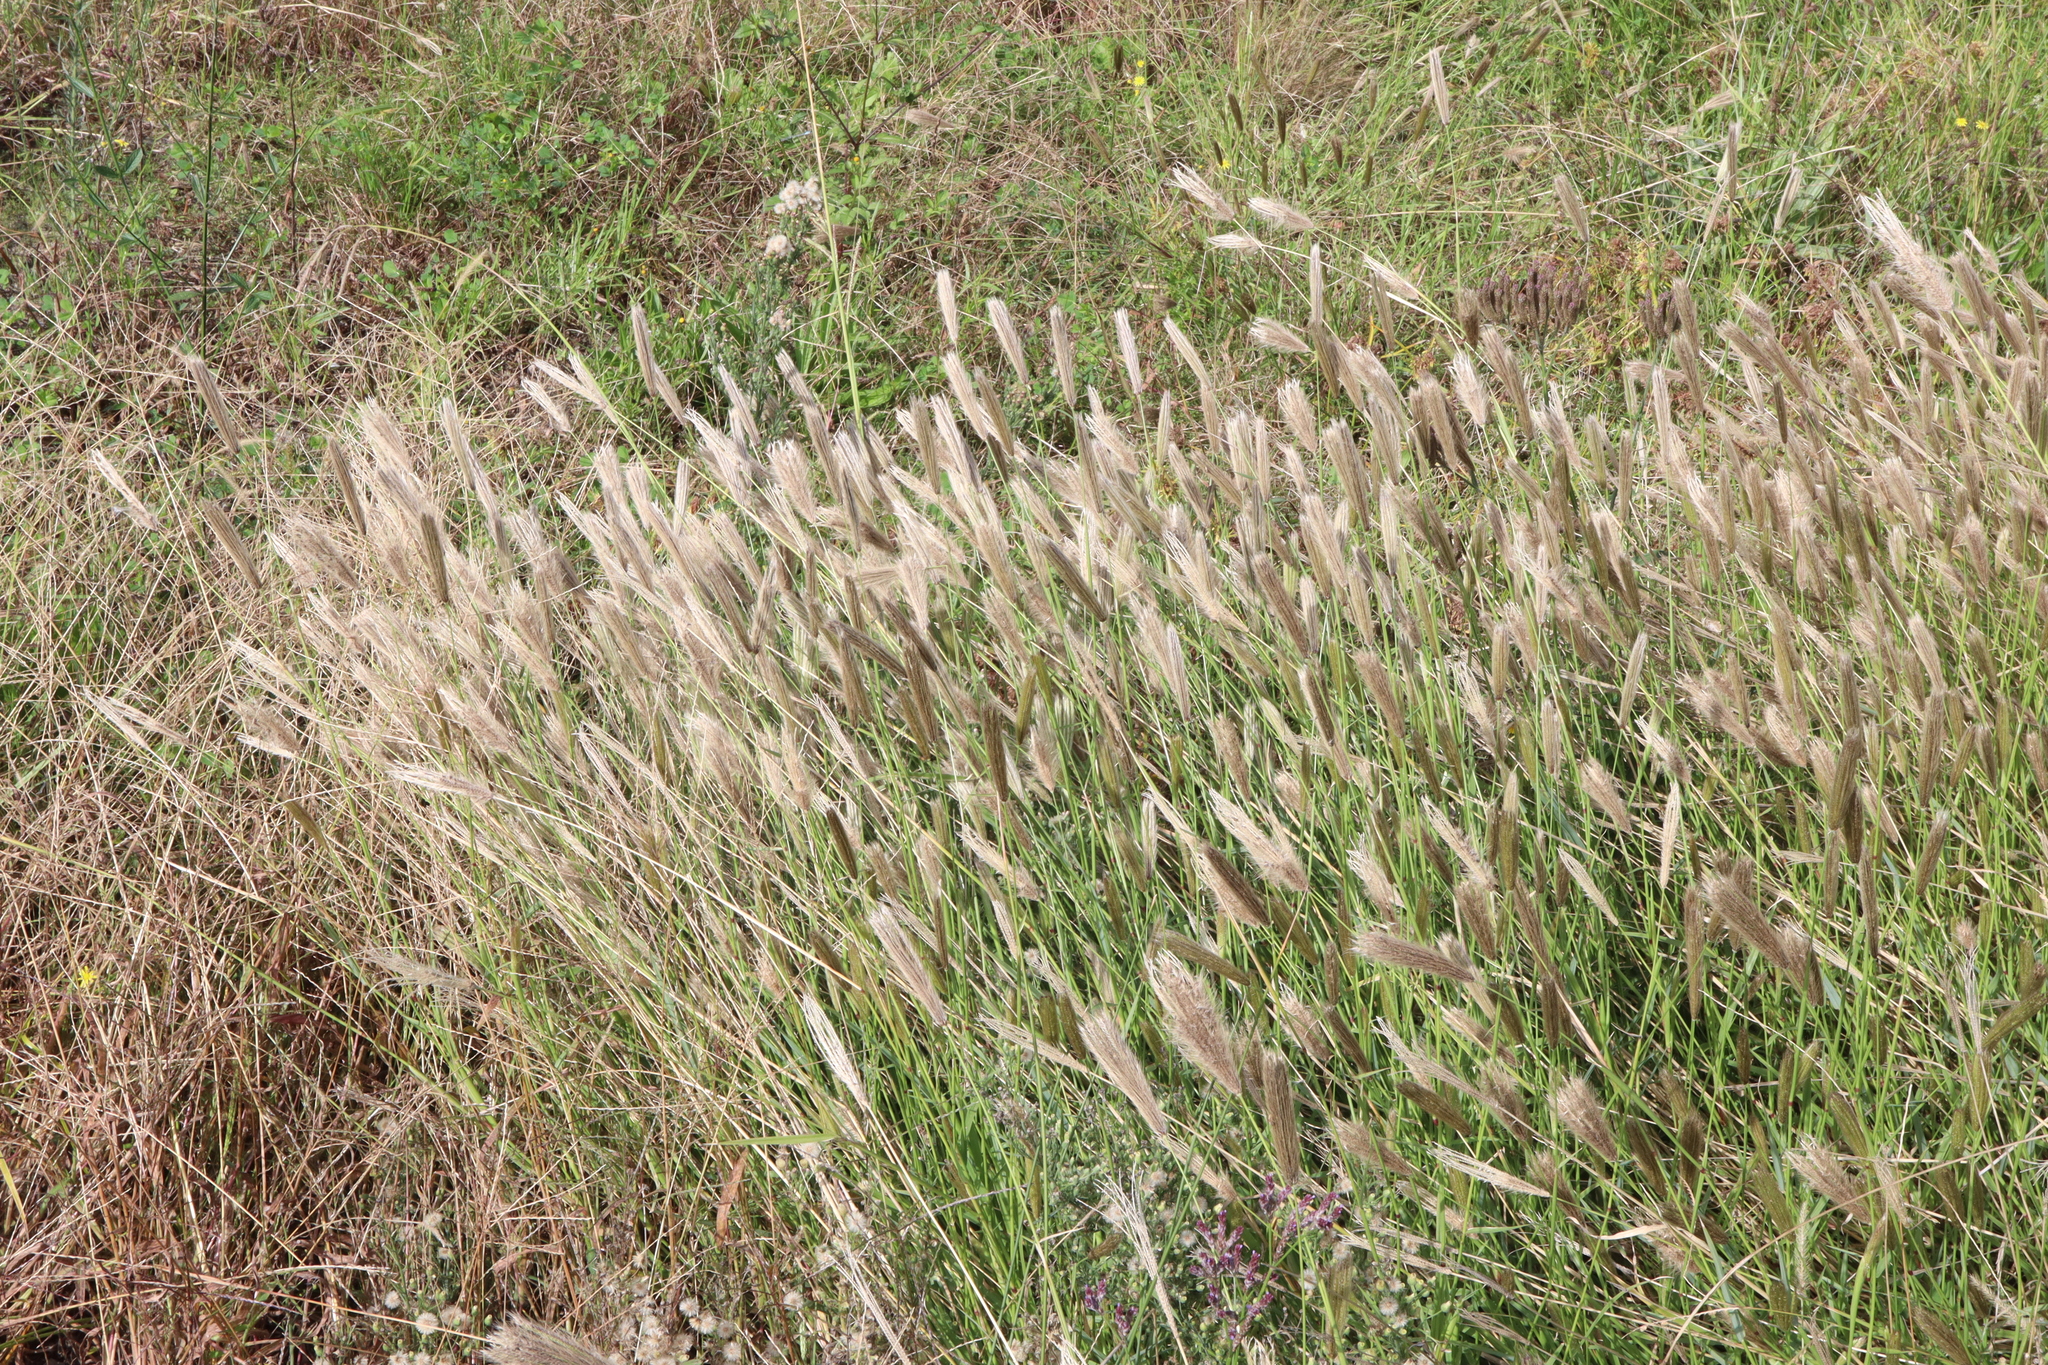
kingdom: Plantae
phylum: Tracheophyta
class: Liliopsida
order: Poales
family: Poaceae
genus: Chloris
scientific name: Chloris virgata
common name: Feathery rhodes-grass
